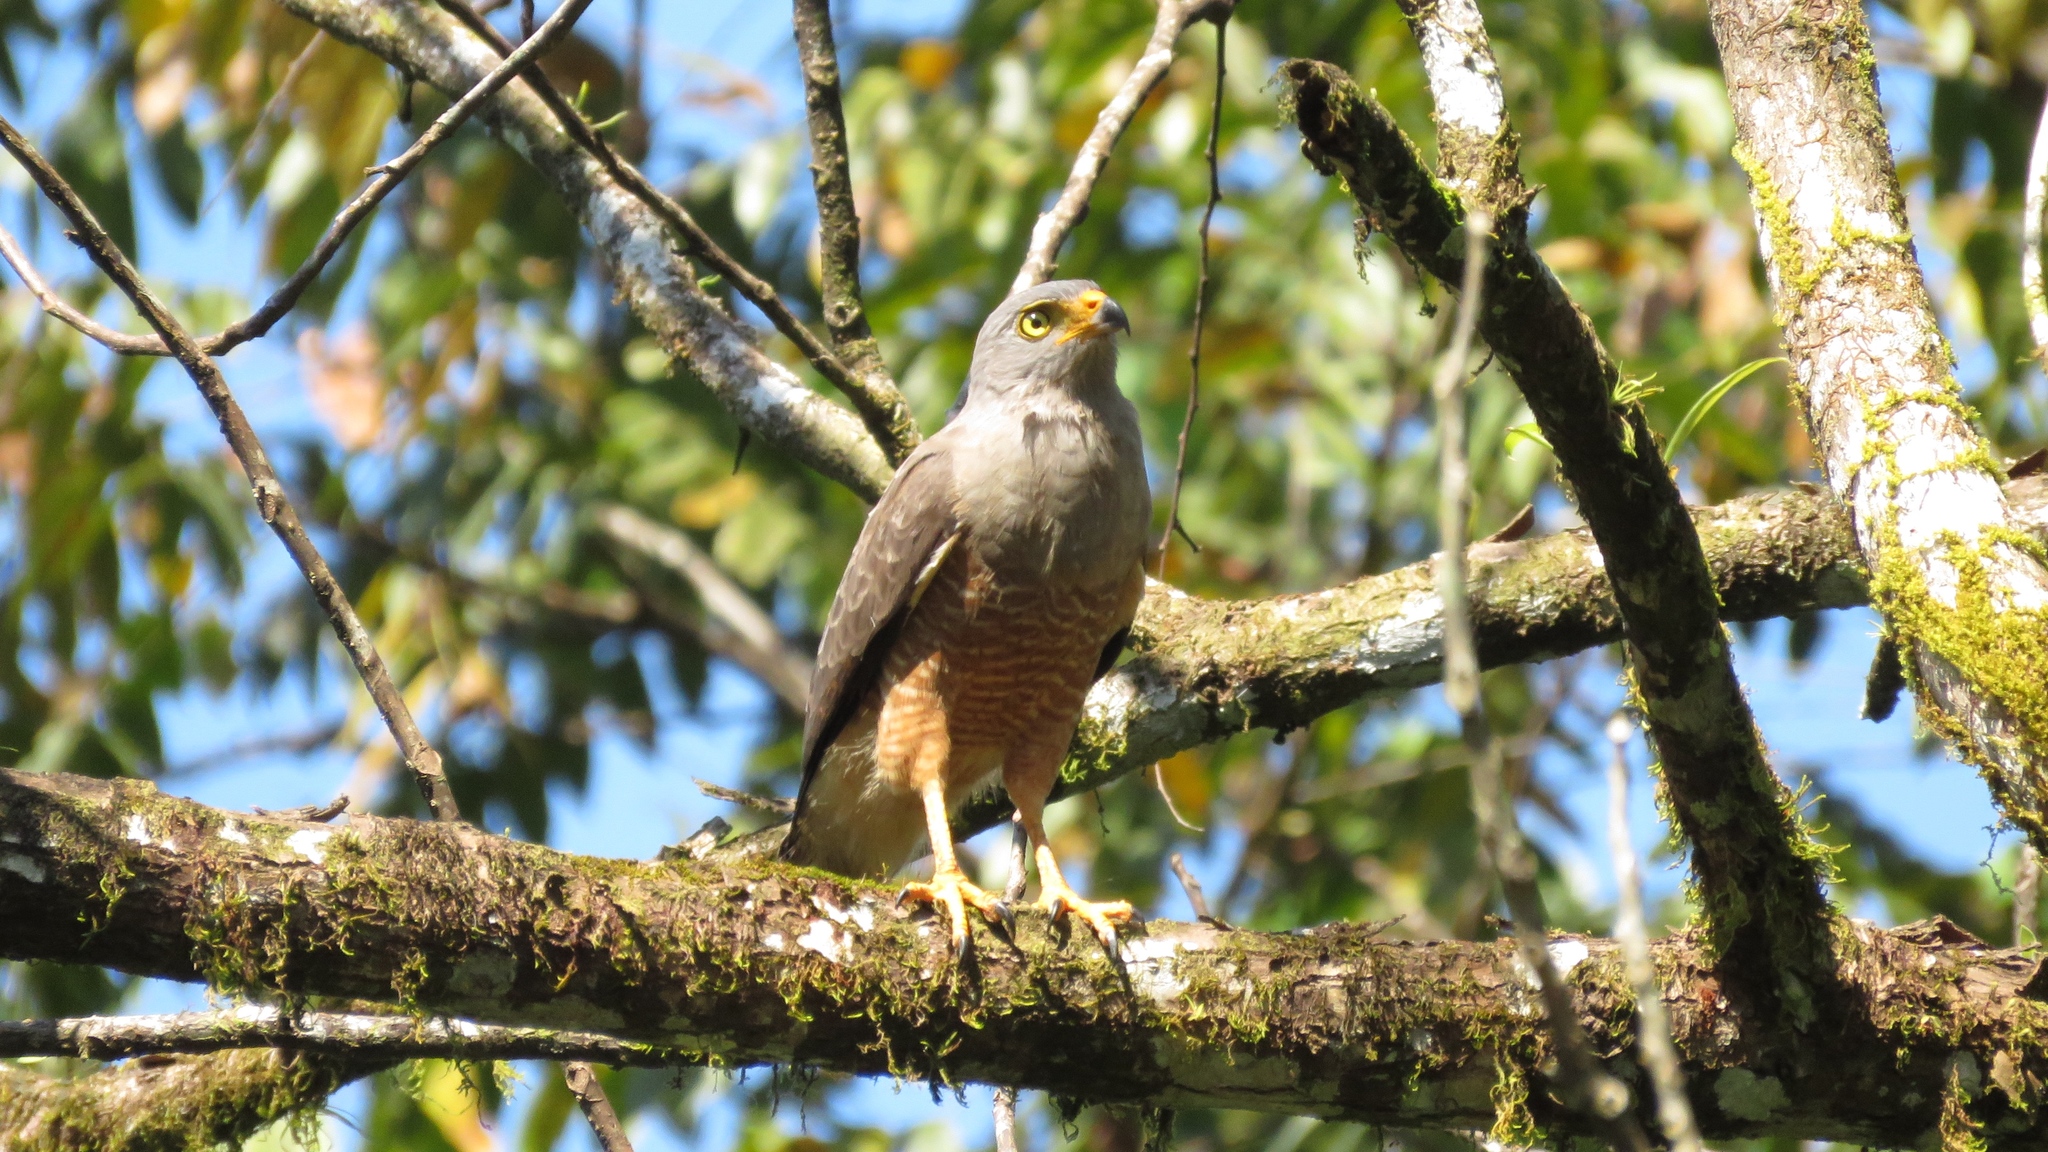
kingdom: Animalia
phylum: Chordata
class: Aves
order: Accipitriformes
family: Accipitridae
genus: Rupornis
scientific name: Rupornis magnirostris
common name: Roadside hawk
